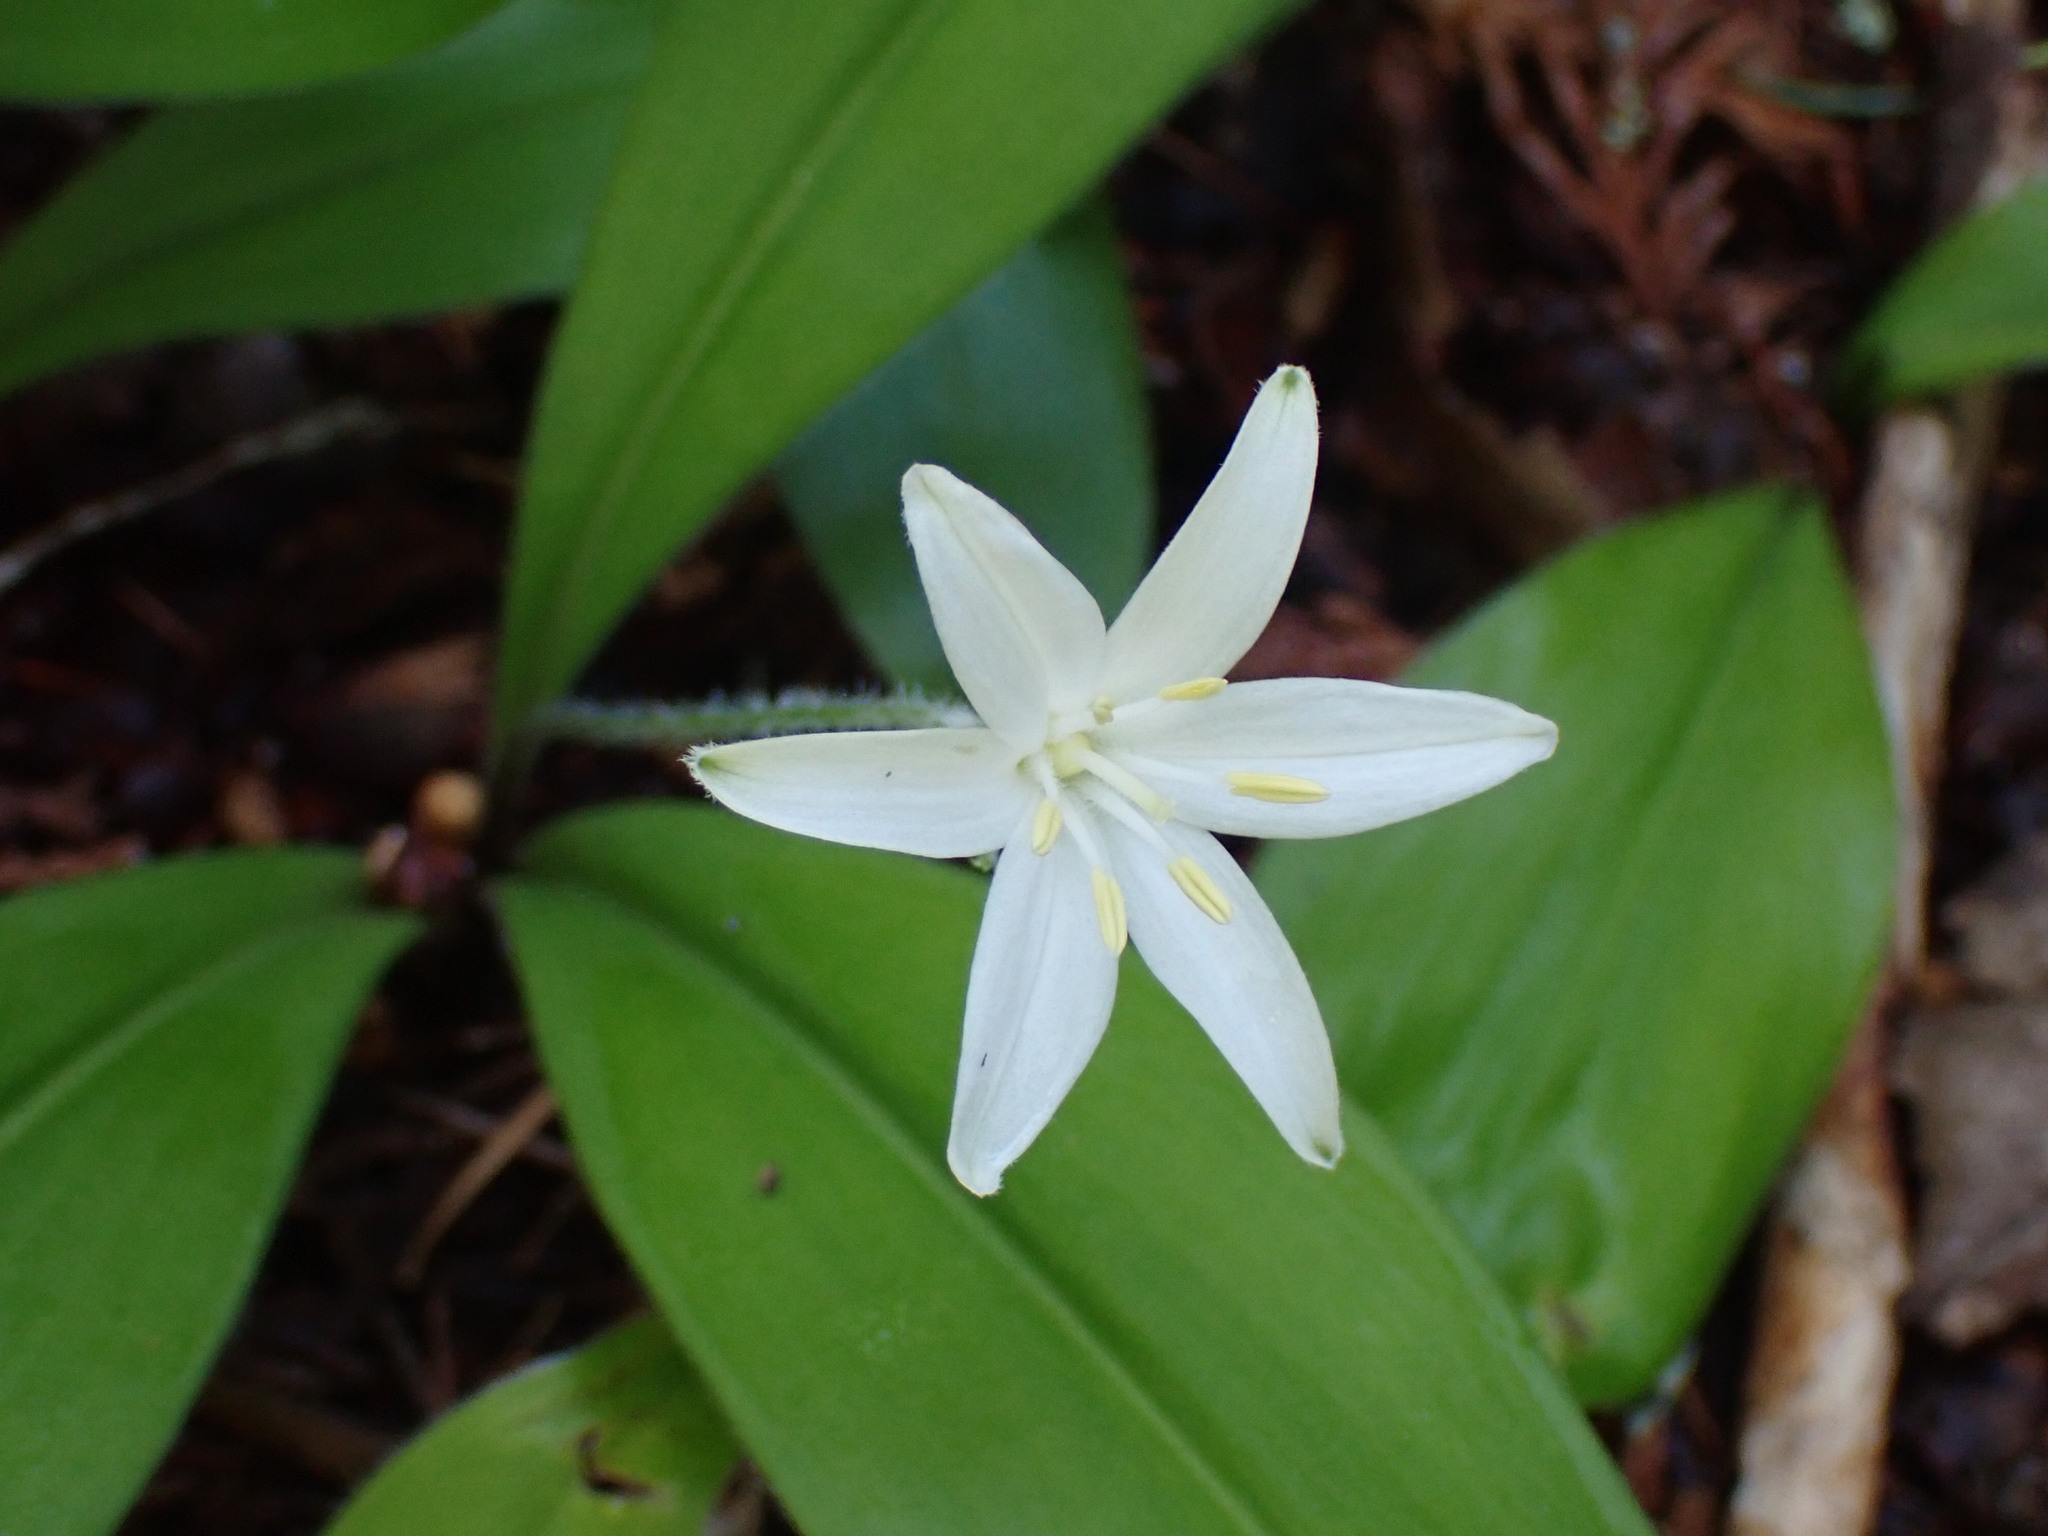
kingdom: Plantae
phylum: Tracheophyta
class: Liliopsida
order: Liliales
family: Liliaceae
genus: Clintonia
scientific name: Clintonia uniflora
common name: Queen's cup
